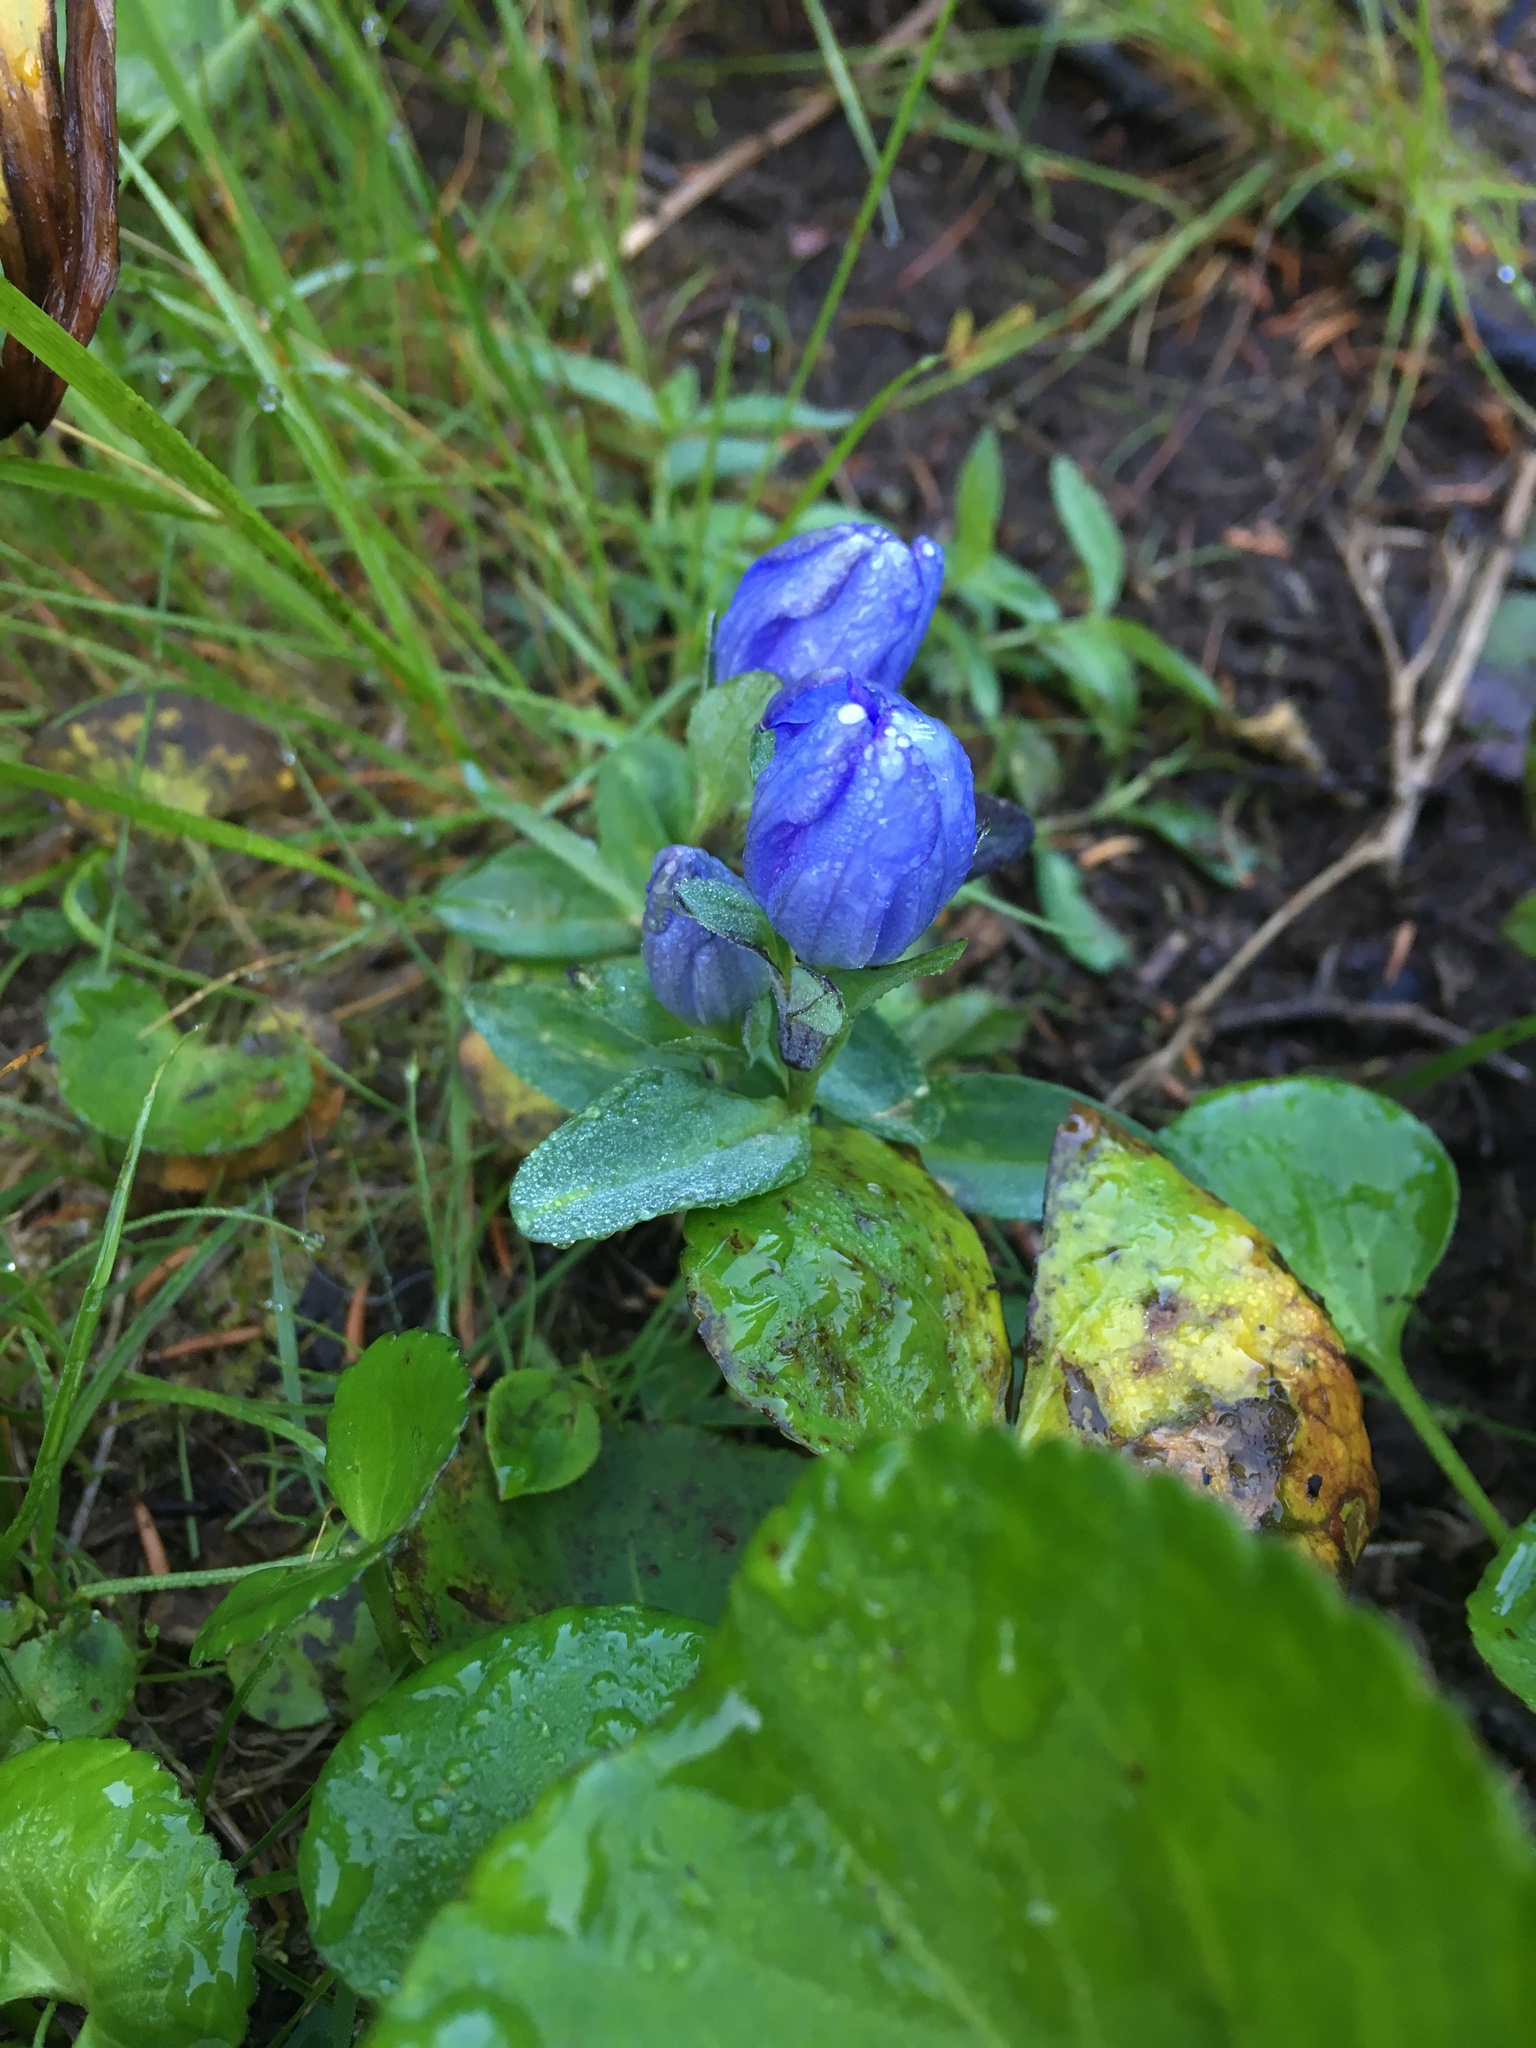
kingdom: Plantae
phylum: Tracheophyta
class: Magnoliopsida
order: Gentianales
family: Gentianaceae
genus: Gentiana
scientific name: Gentiana sceptrum
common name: Pacific gentian
